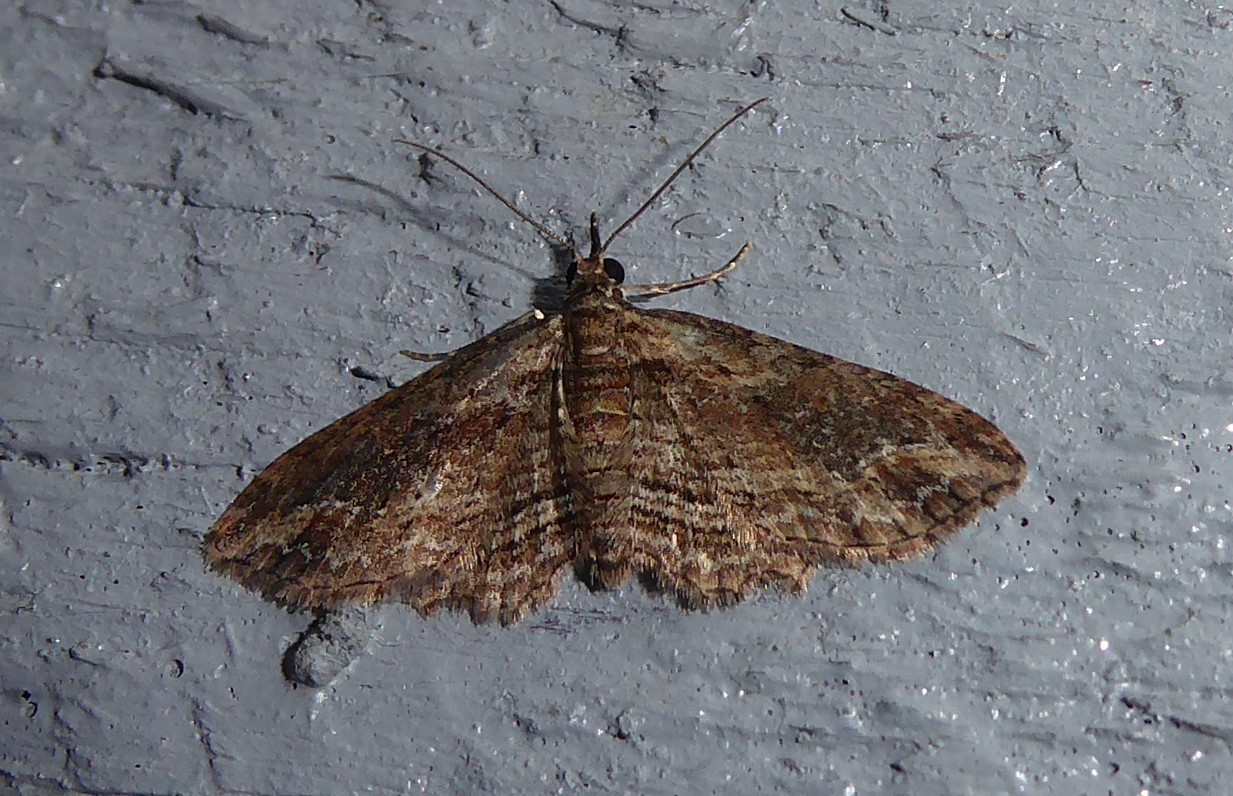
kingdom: Animalia
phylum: Arthropoda
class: Insecta
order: Lepidoptera
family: Geometridae
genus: Chloroclystis
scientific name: Chloroclystis filata
